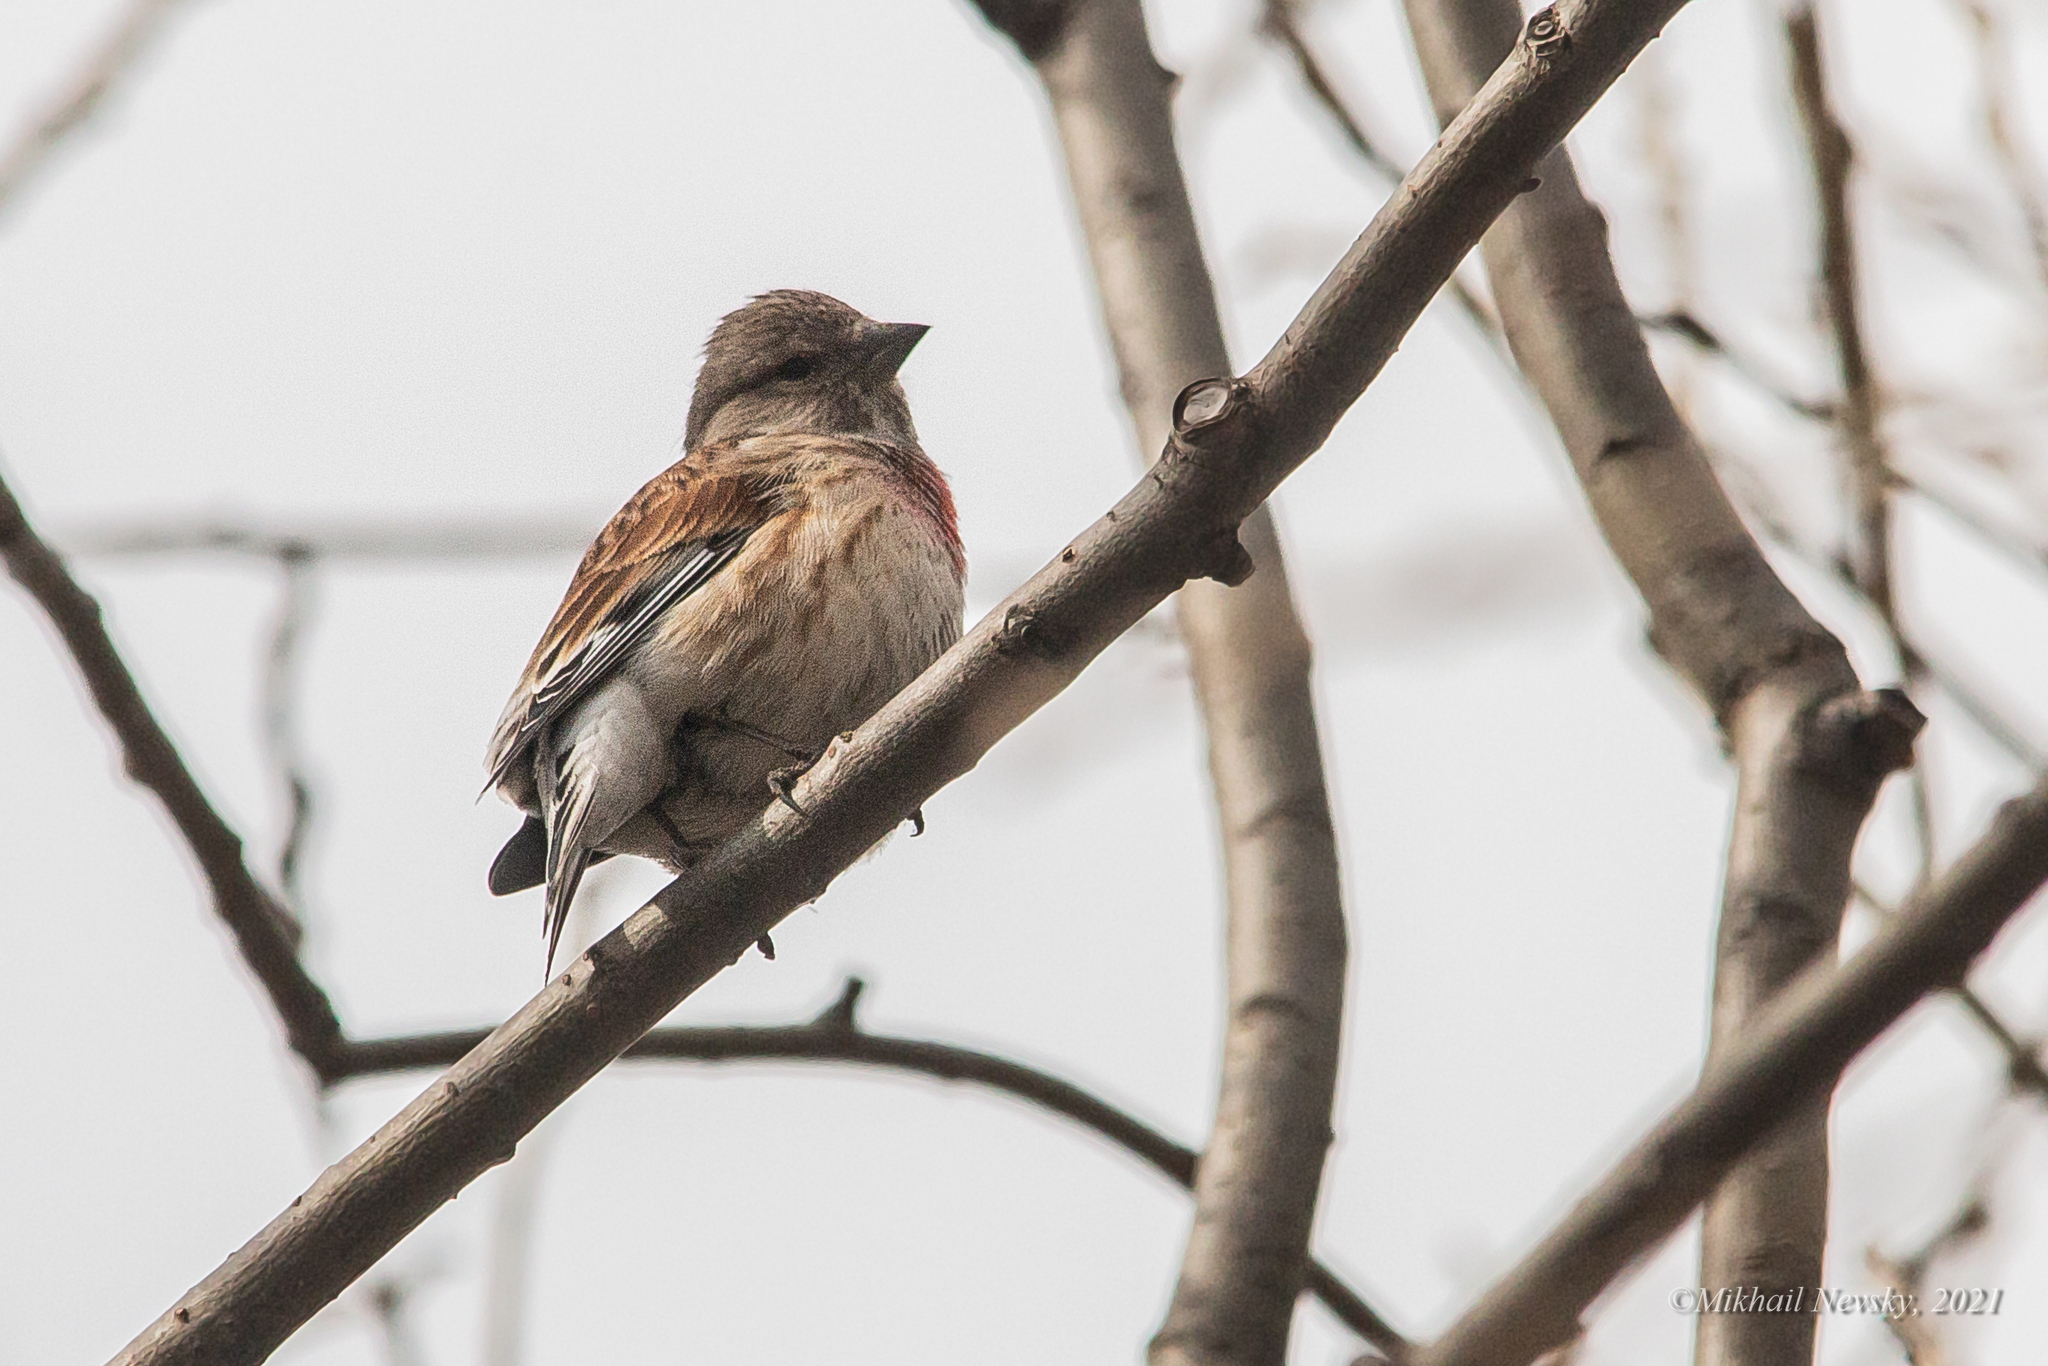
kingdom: Animalia
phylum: Chordata
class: Aves
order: Passeriformes
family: Fringillidae
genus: Linaria
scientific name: Linaria cannabina
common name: Common linnet
